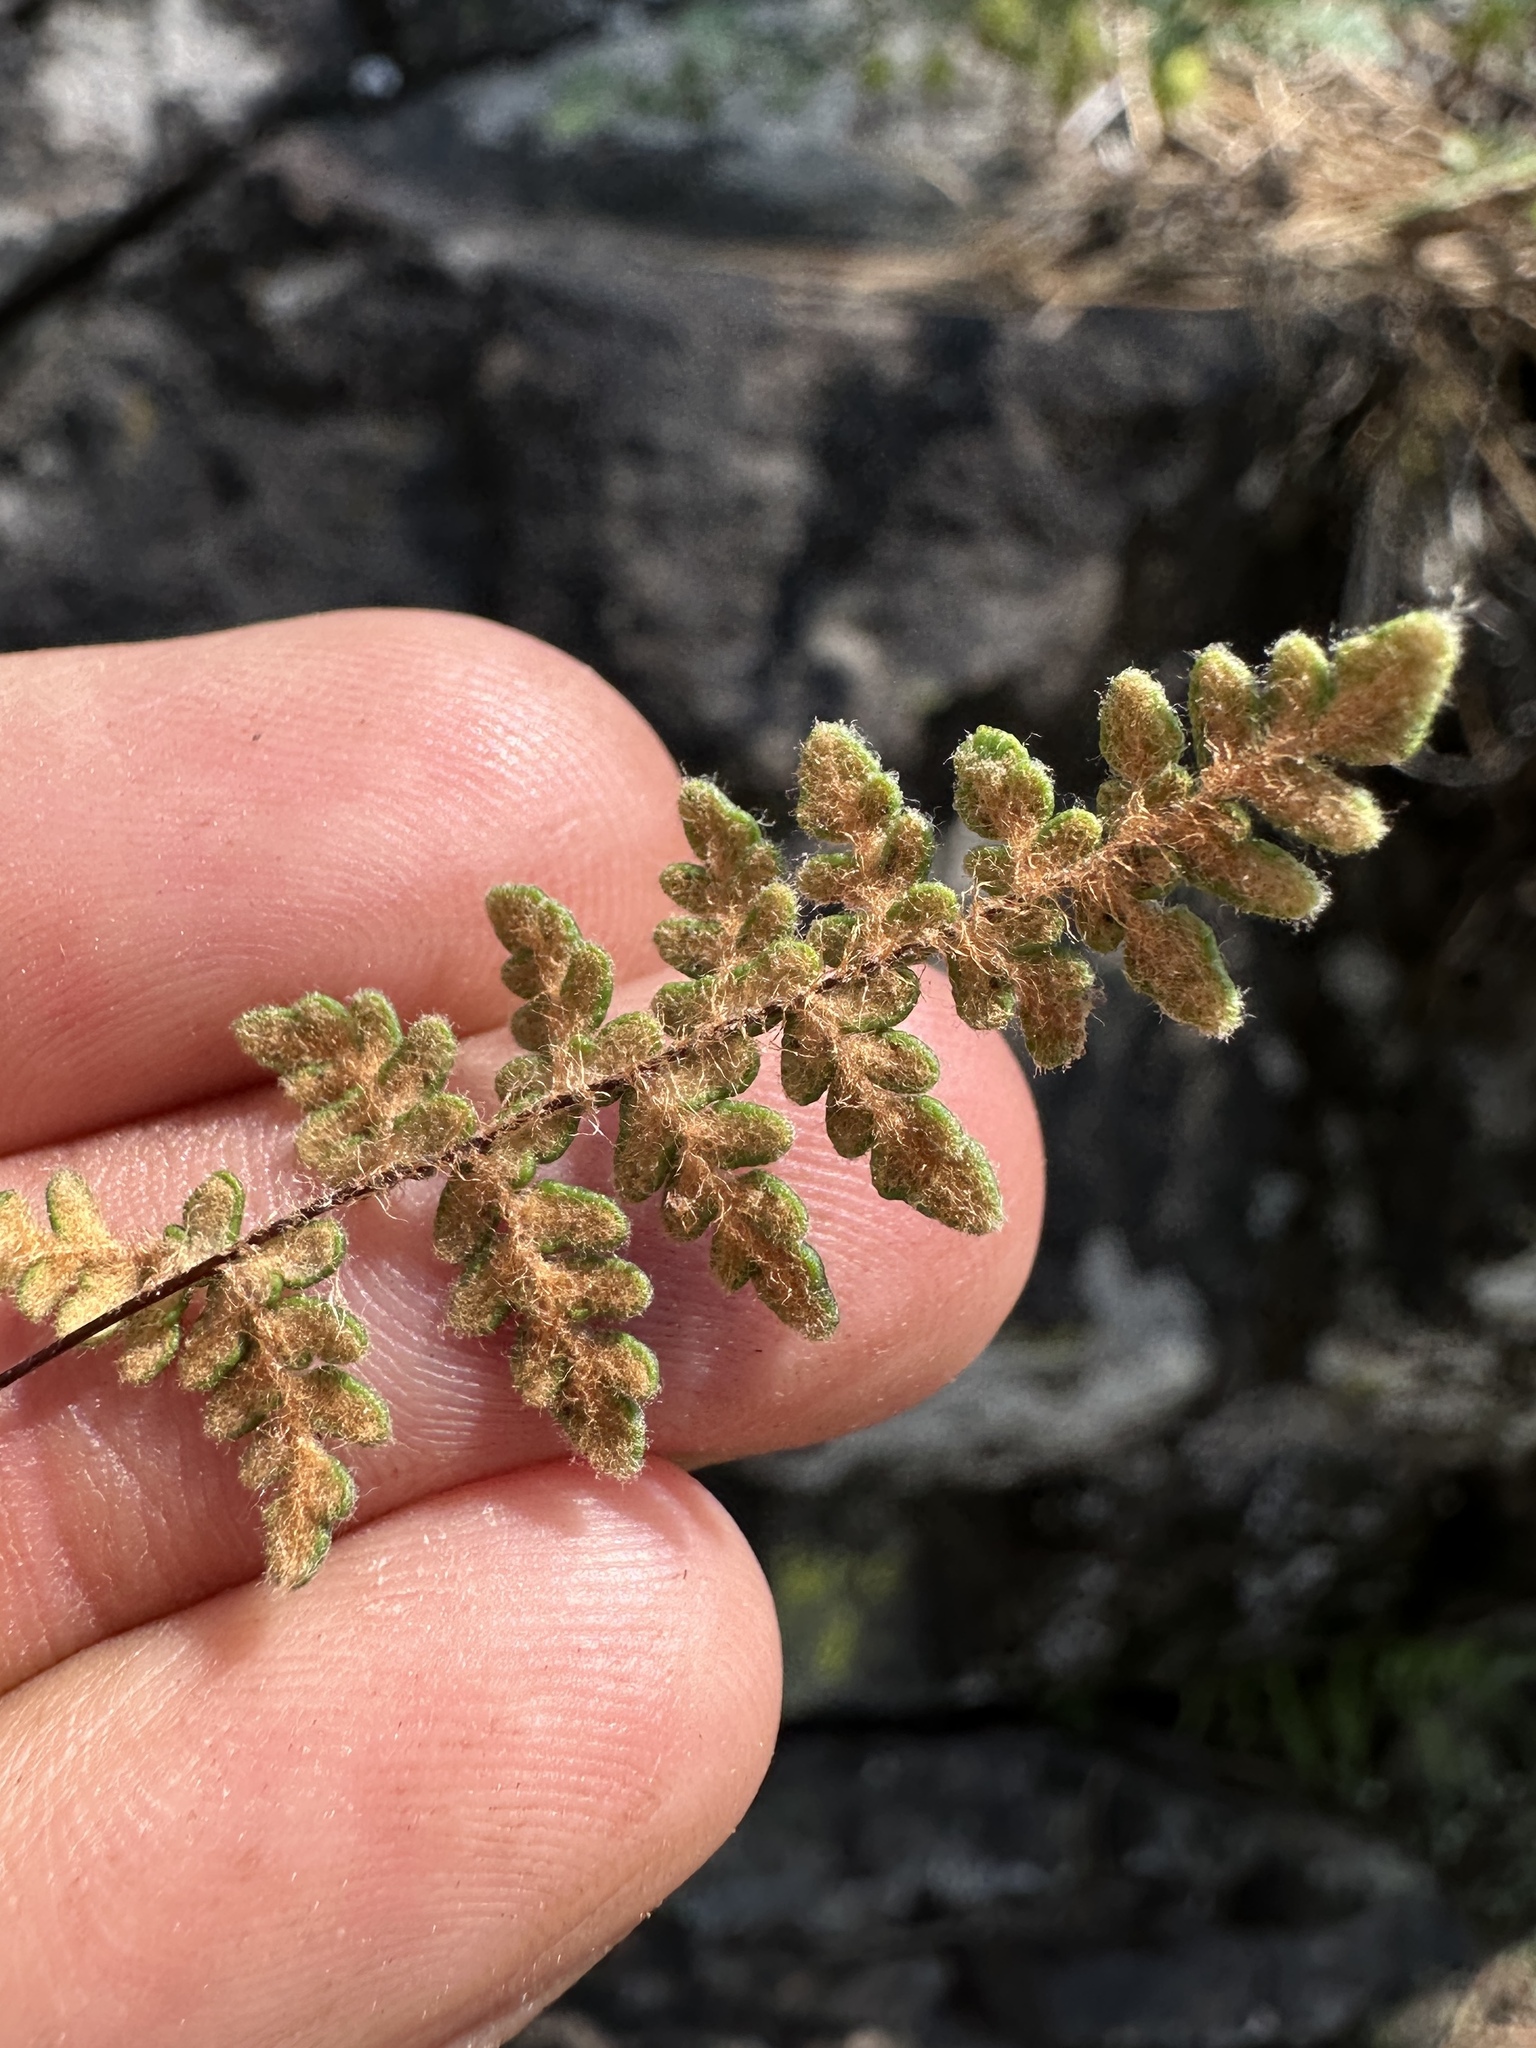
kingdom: Plantae
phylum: Tracheophyta
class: Polypodiopsida
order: Polypodiales
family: Pteridaceae
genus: Myriopteris
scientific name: Myriopteris gracillima
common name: Lace fern
